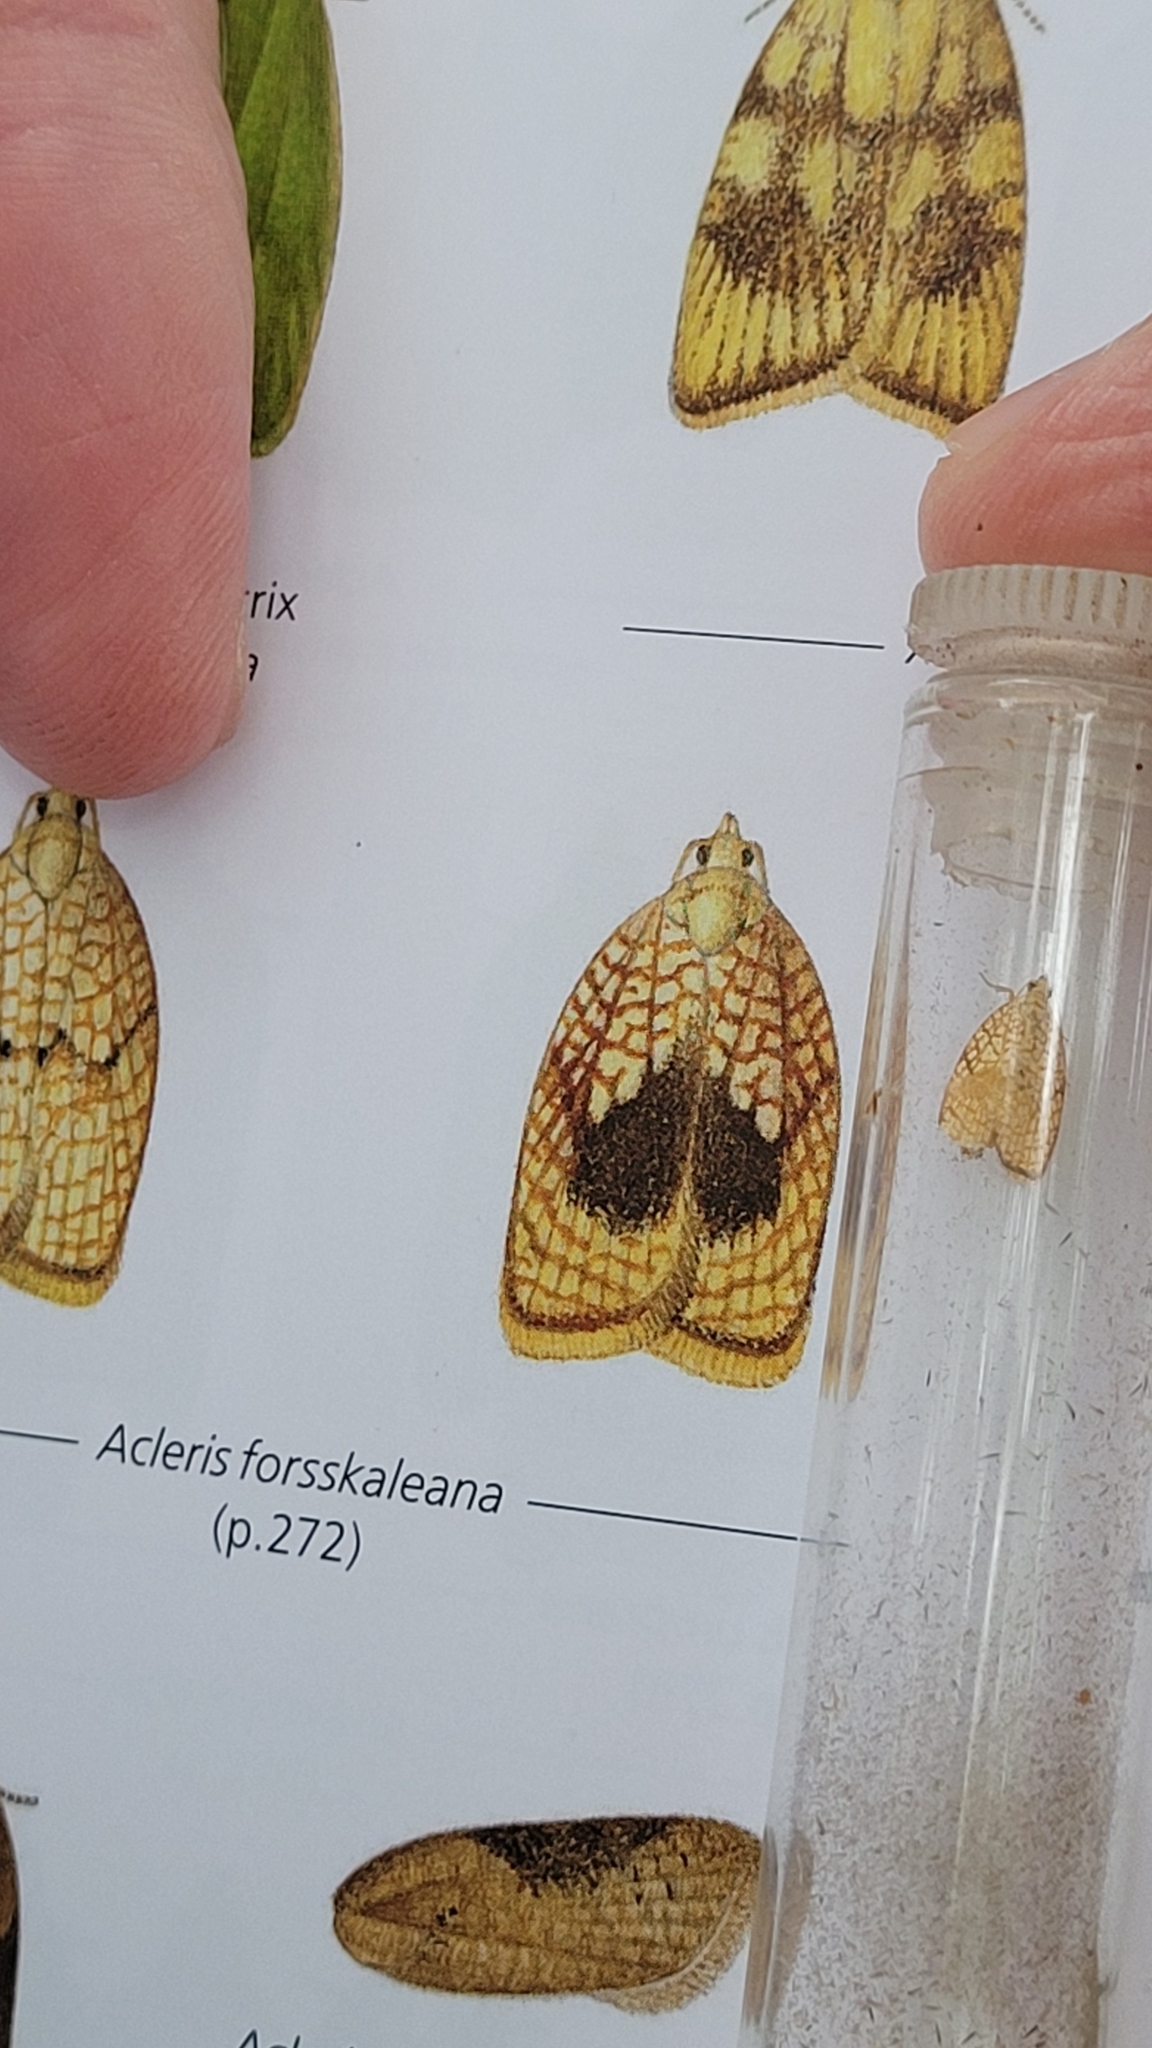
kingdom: Animalia
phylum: Arthropoda
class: Insecta
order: Lepidoptera
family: Tortricidae
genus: Acleris
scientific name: Acleris forsskaleana
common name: Maple button
